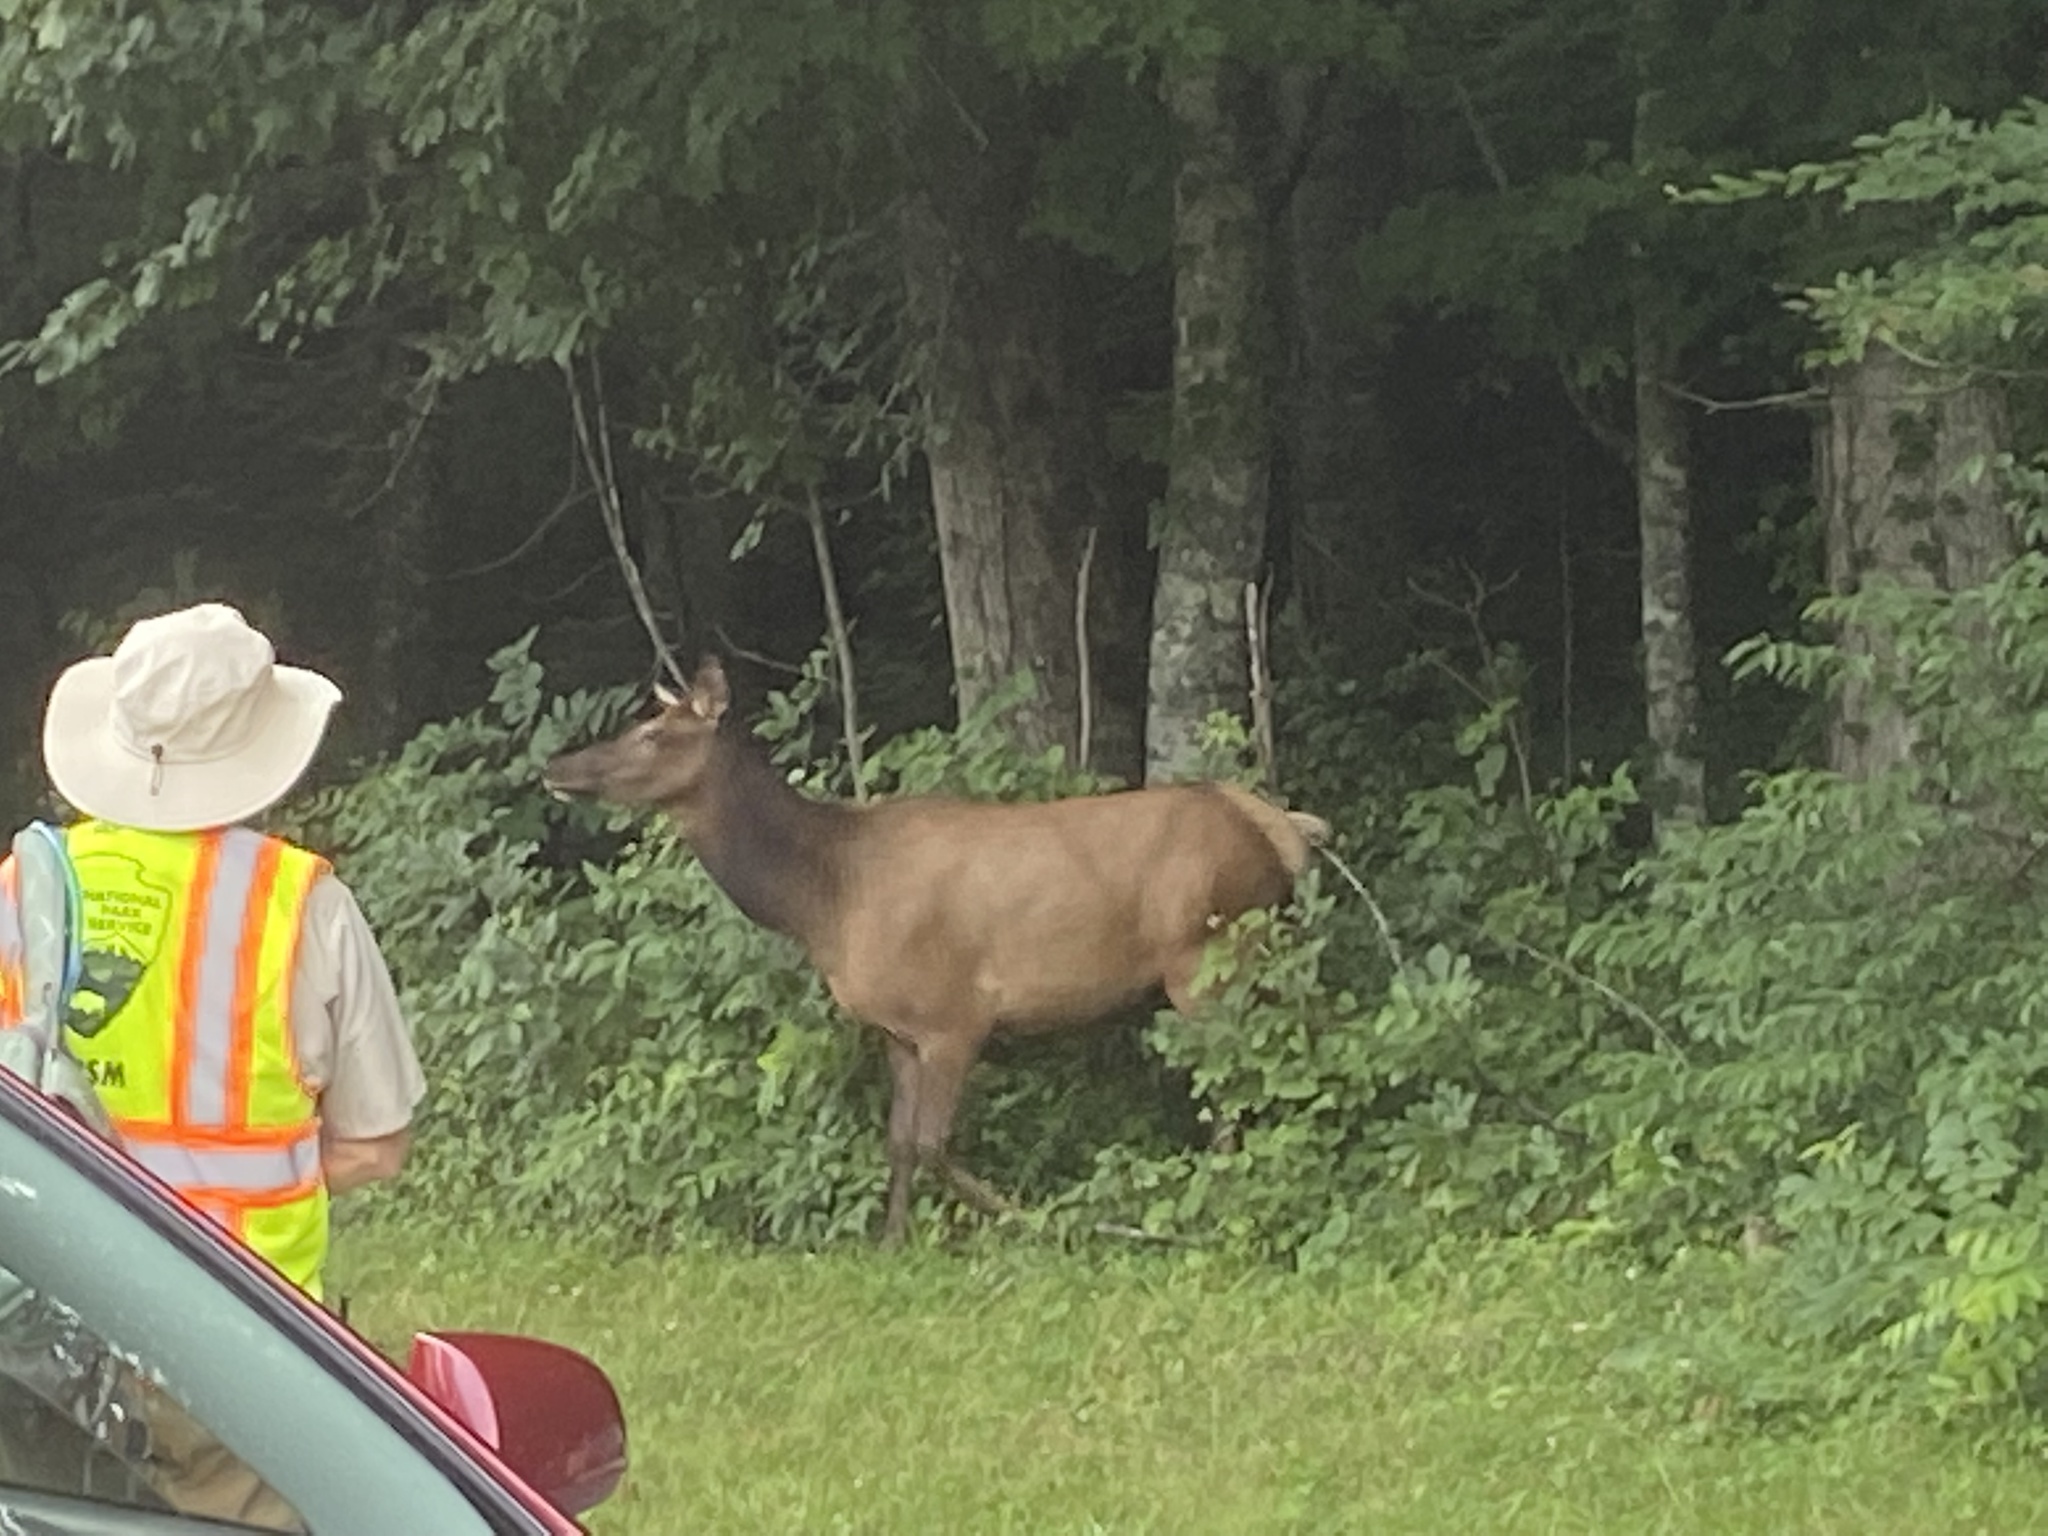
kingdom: Animalia
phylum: Chordata
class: Mammalia
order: Artiodactyla
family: Cervidae
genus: Cervus
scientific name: Cervus elaphus
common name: Red deer
